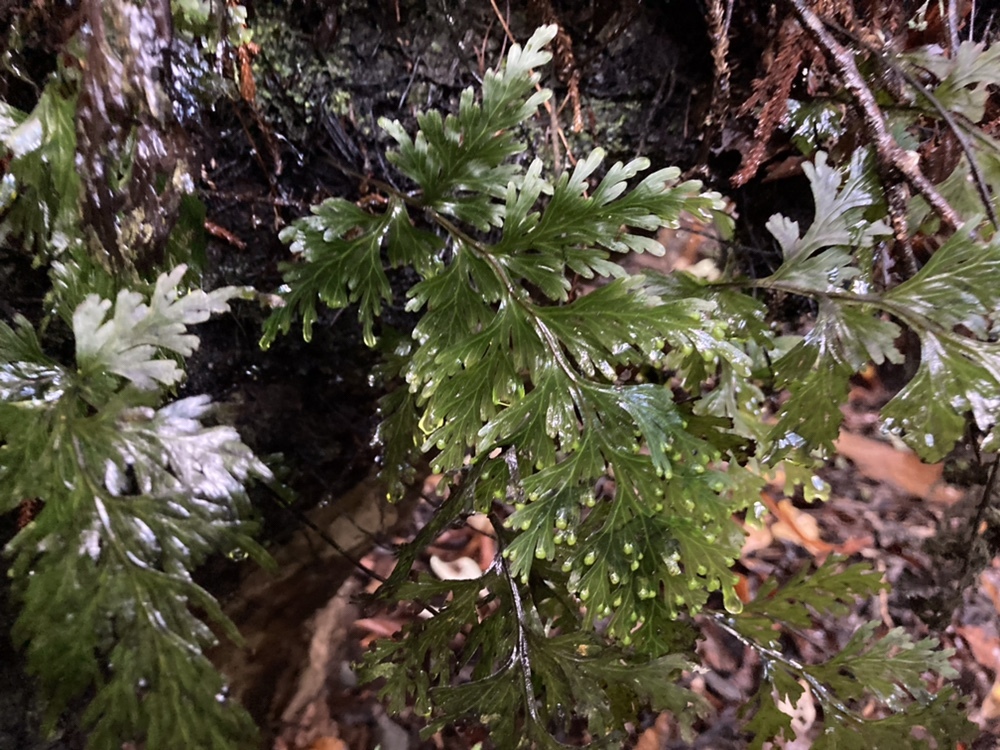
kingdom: Plantae
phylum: Tracheophyta
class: Polypodiopsida
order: Hymenophyllales
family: Hymenophyllaceae
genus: Hymenophyllum
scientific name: Hymenophyllum dilatatum
